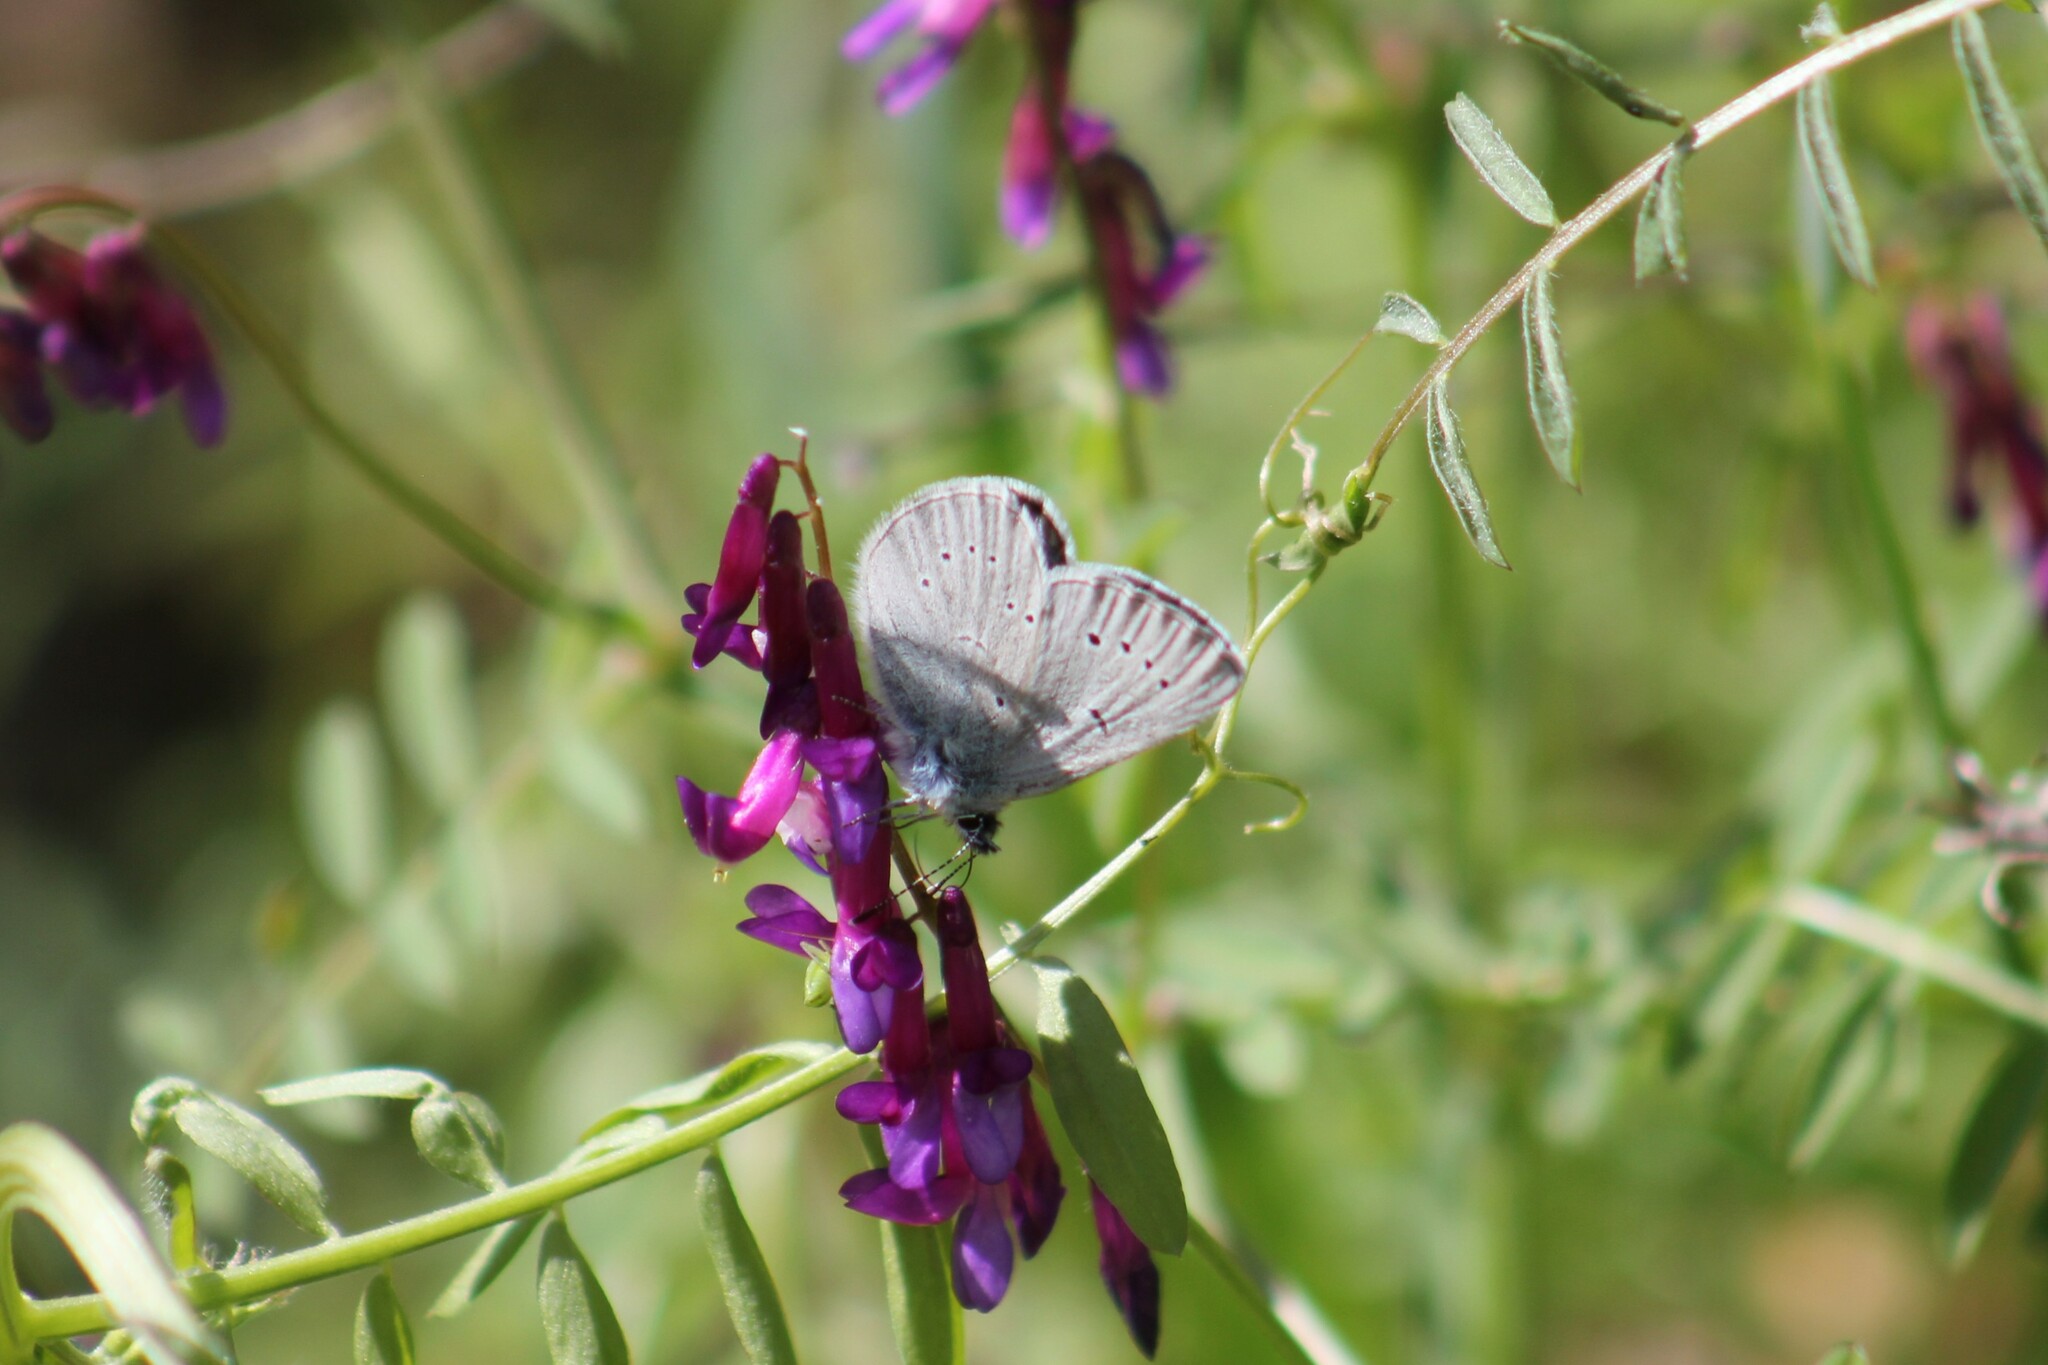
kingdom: Animalia
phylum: Arthropoda
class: Insecta
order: Lepidoptera
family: Lycaenidae
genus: Glaucopsyche
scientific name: Glaucopsyche lygdamus
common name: Silvery blue
